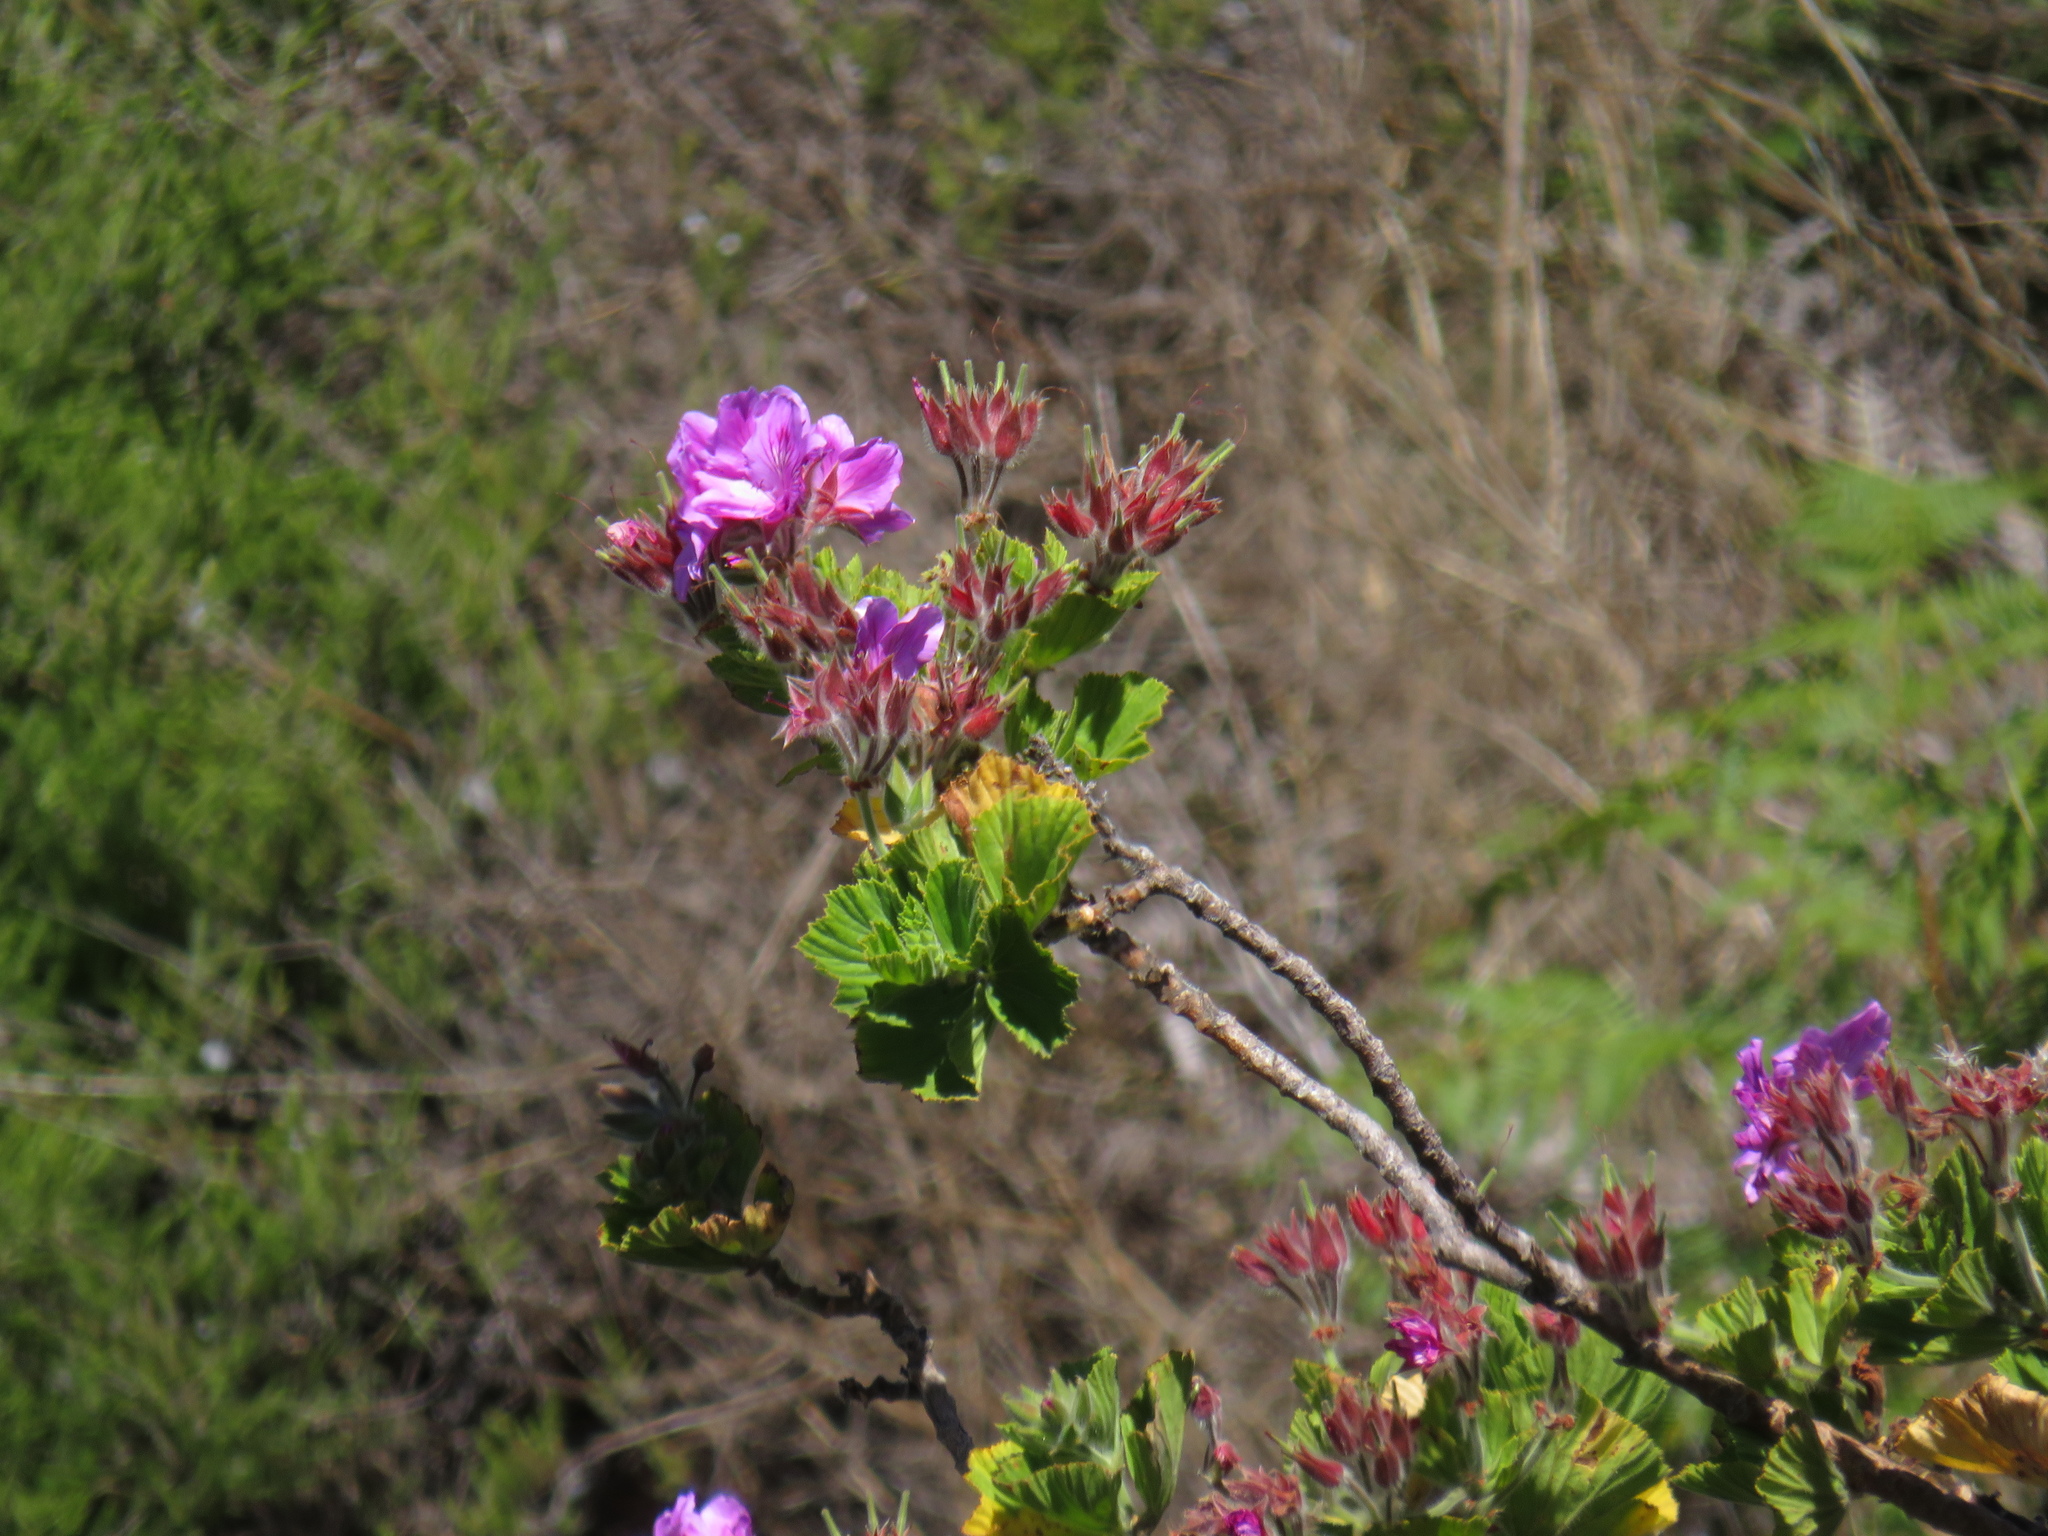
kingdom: Plantae
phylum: Tracheophyta
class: Magnoliopsida
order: Geraniales
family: Geraniaceae
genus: Pelargonium
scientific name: Pelargonium cucullatum
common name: Tree pelargonium
